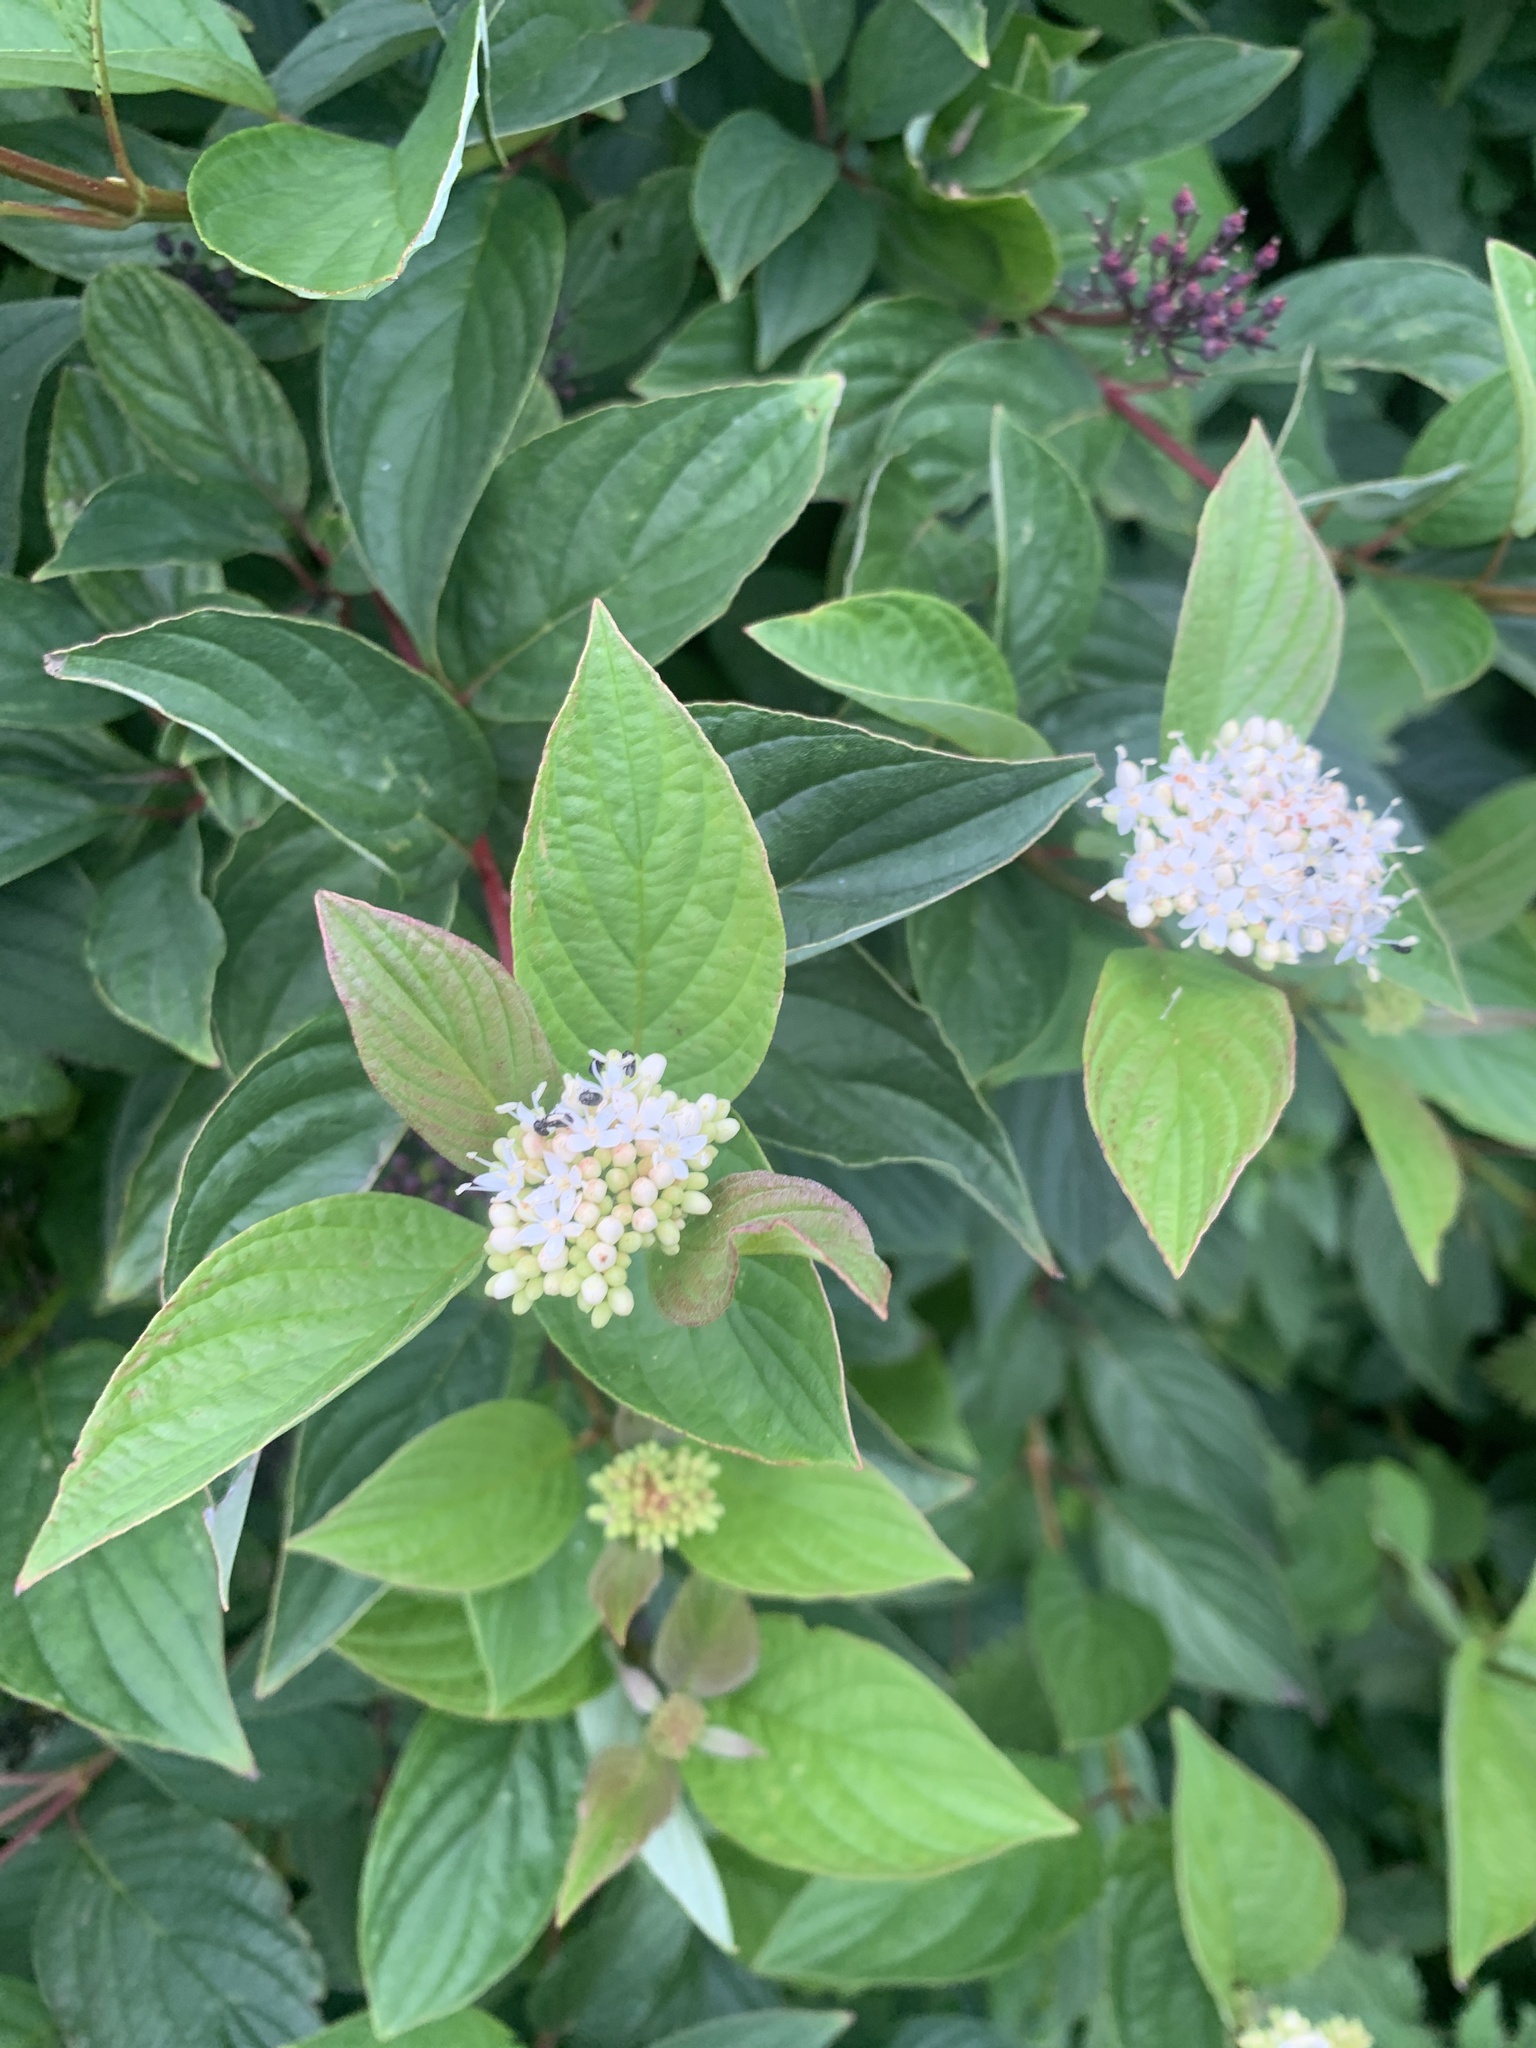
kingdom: Plantae
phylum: Tracheophyta
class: Magnoliopsida
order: Cornales
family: Cornaceae
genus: Cornus
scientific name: Cornus sericea
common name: Red-osier dogwood
